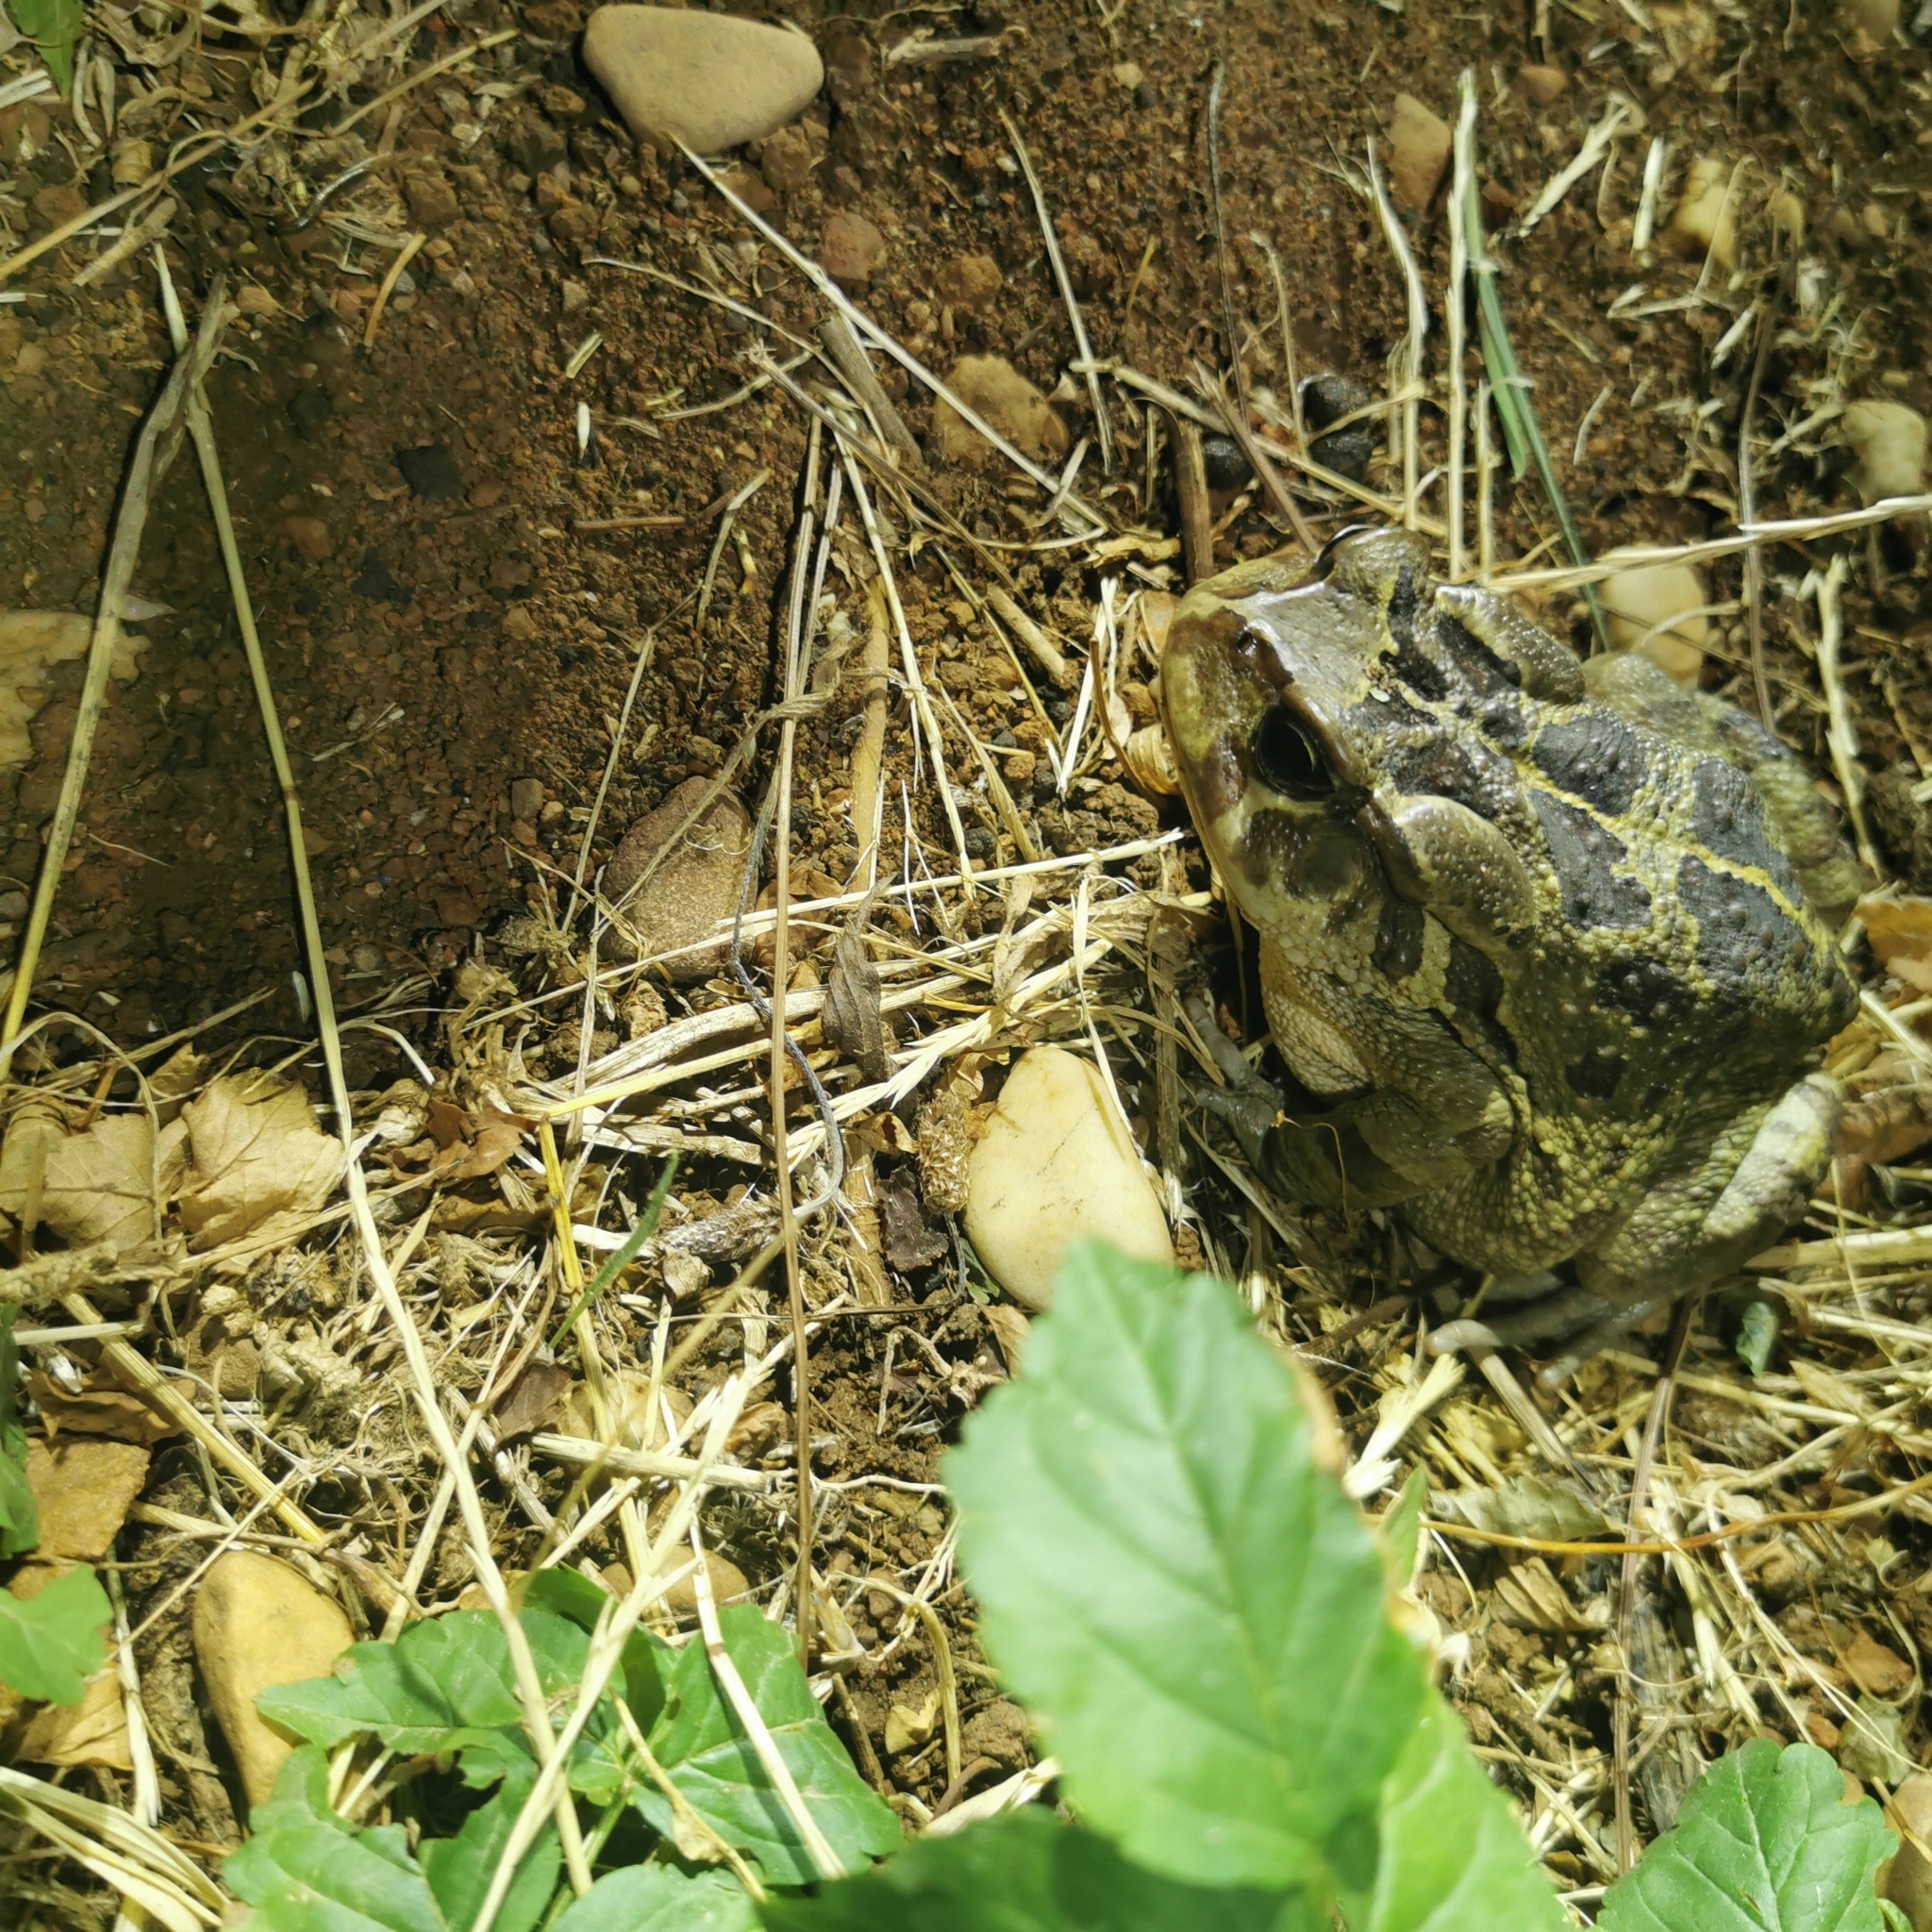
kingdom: Animalia
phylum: Chordata
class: Amphibia
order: Anura
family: Bufonidae
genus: Sclerophrys
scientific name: Sclerophrys pardalis
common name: Eastern leopard toad
